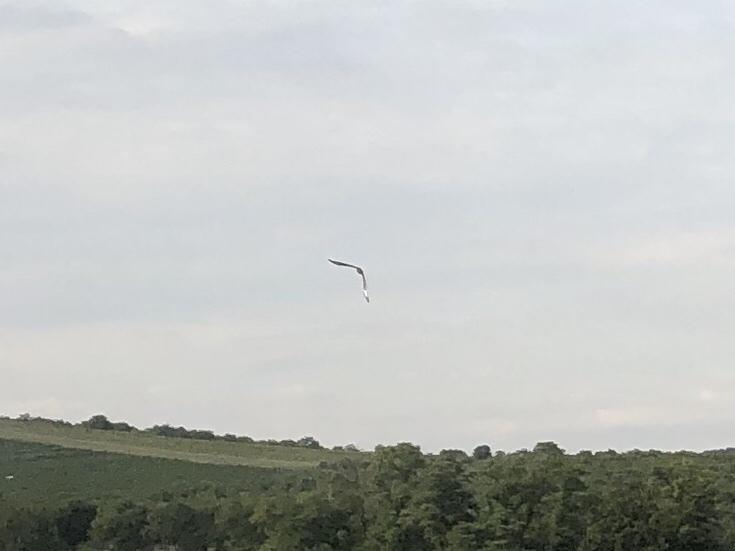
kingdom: Animalia
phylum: Chordata
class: Aves
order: Accipitriformes
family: Accipitridae
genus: Buteo
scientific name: Buteo buteo
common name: Common buzzard
